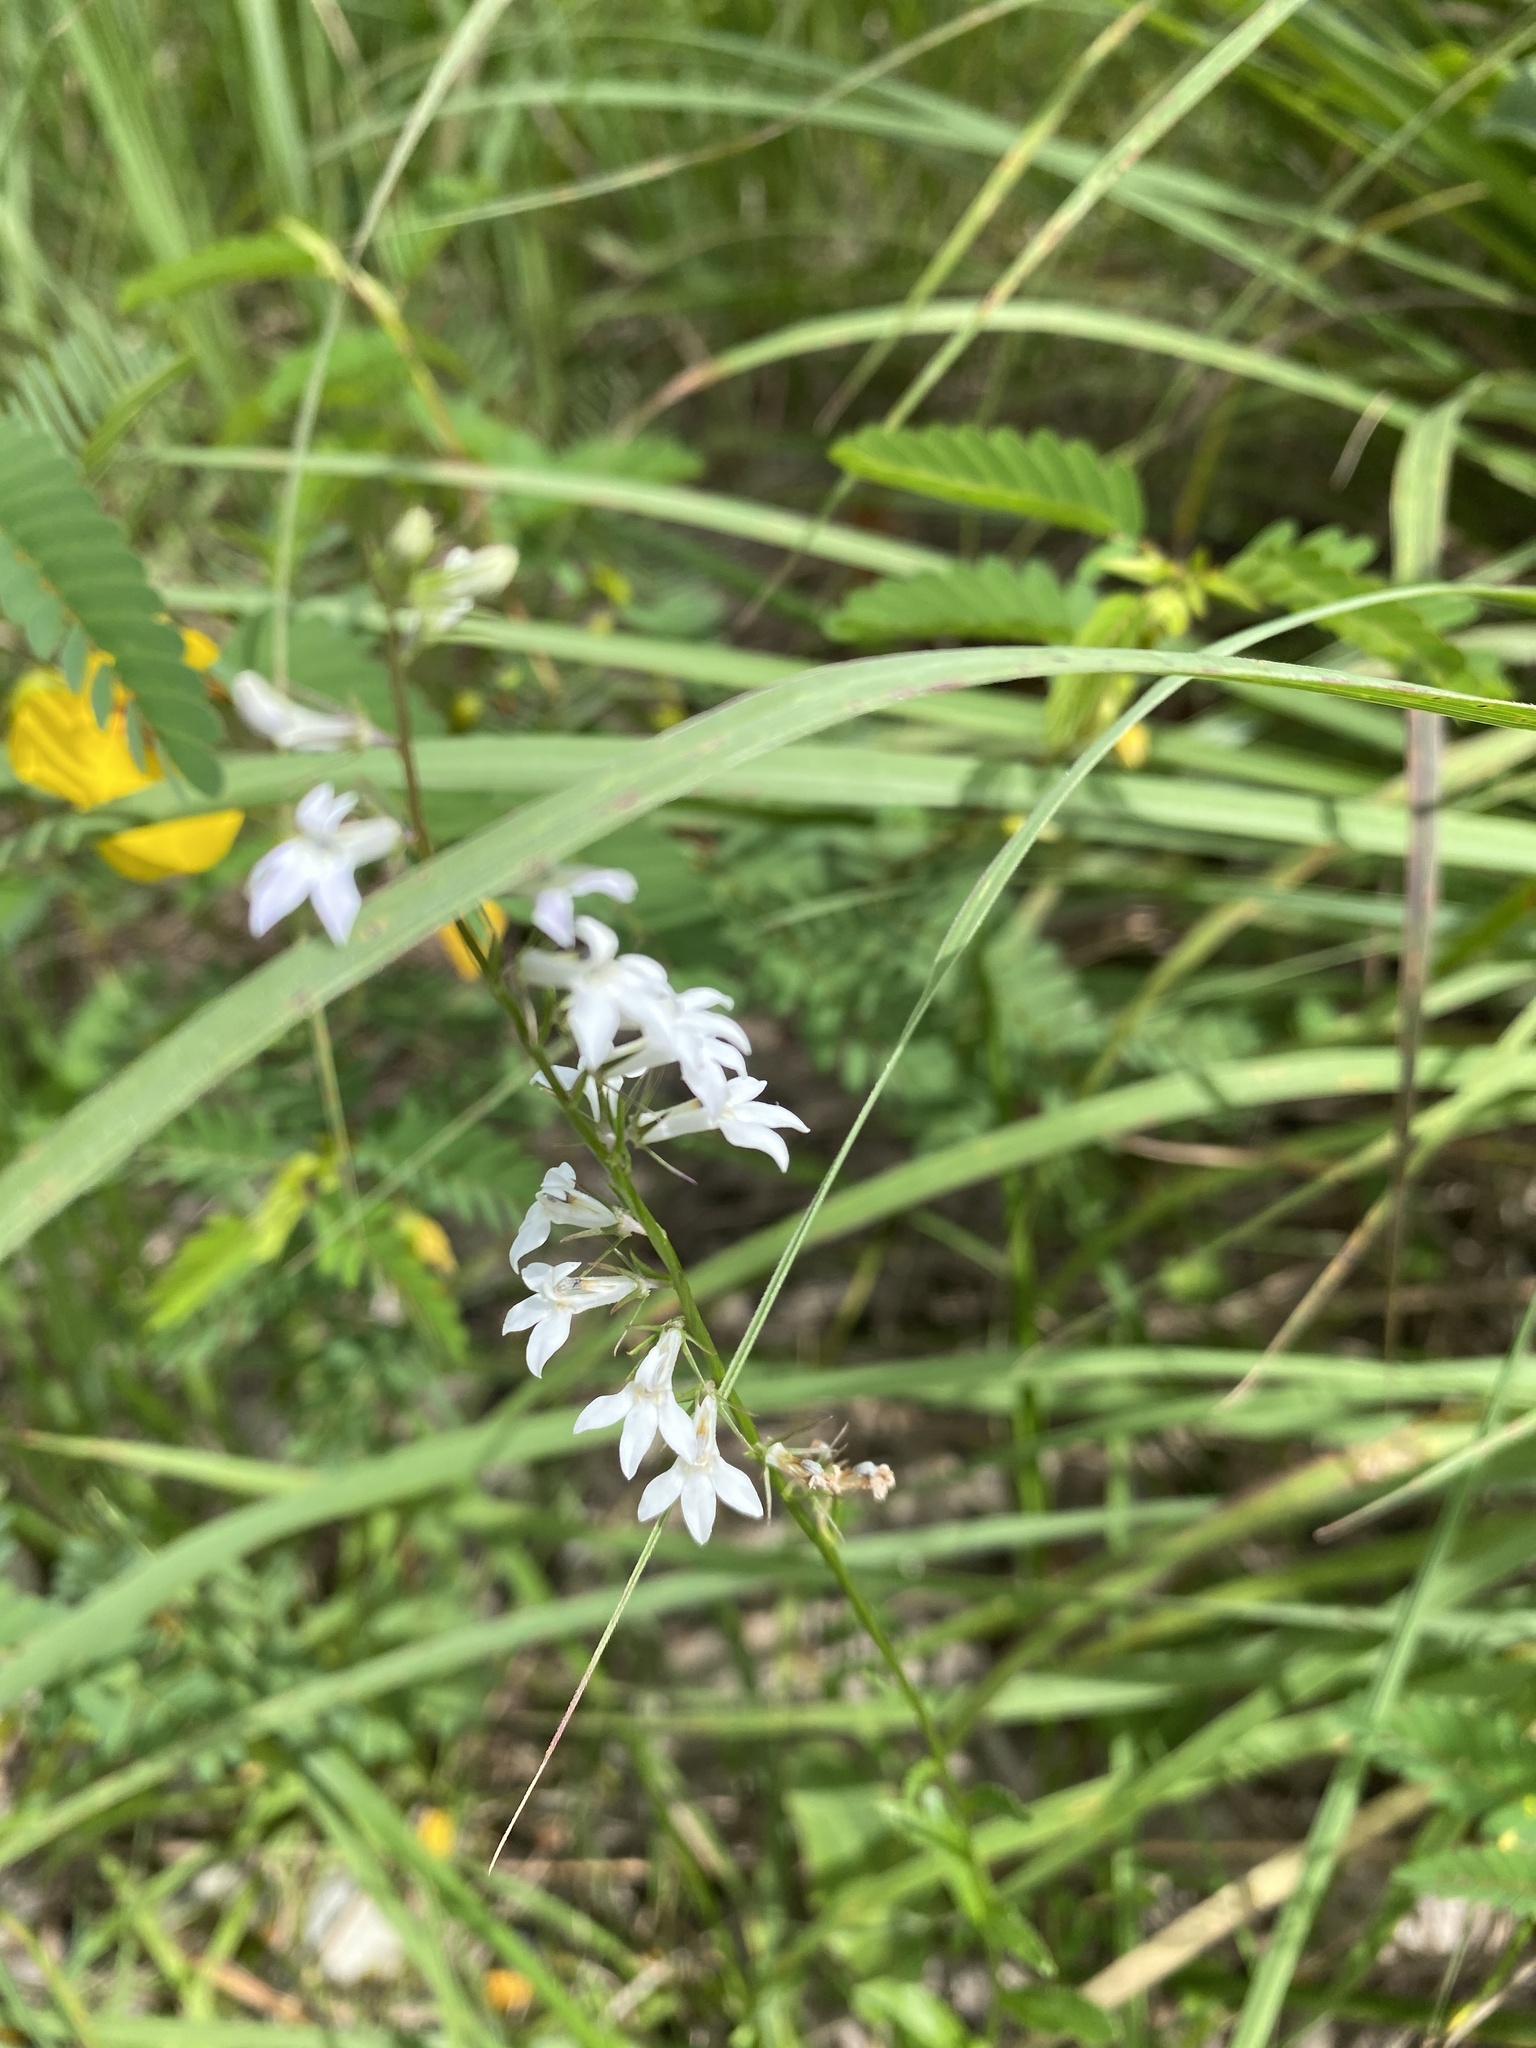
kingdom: Plantae
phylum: Tracheophyta
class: Magnoliopsida
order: Asterales
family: Campanulaceae
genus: Lobelia
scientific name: Lobelia spicata
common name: Pale-spike lobelia
